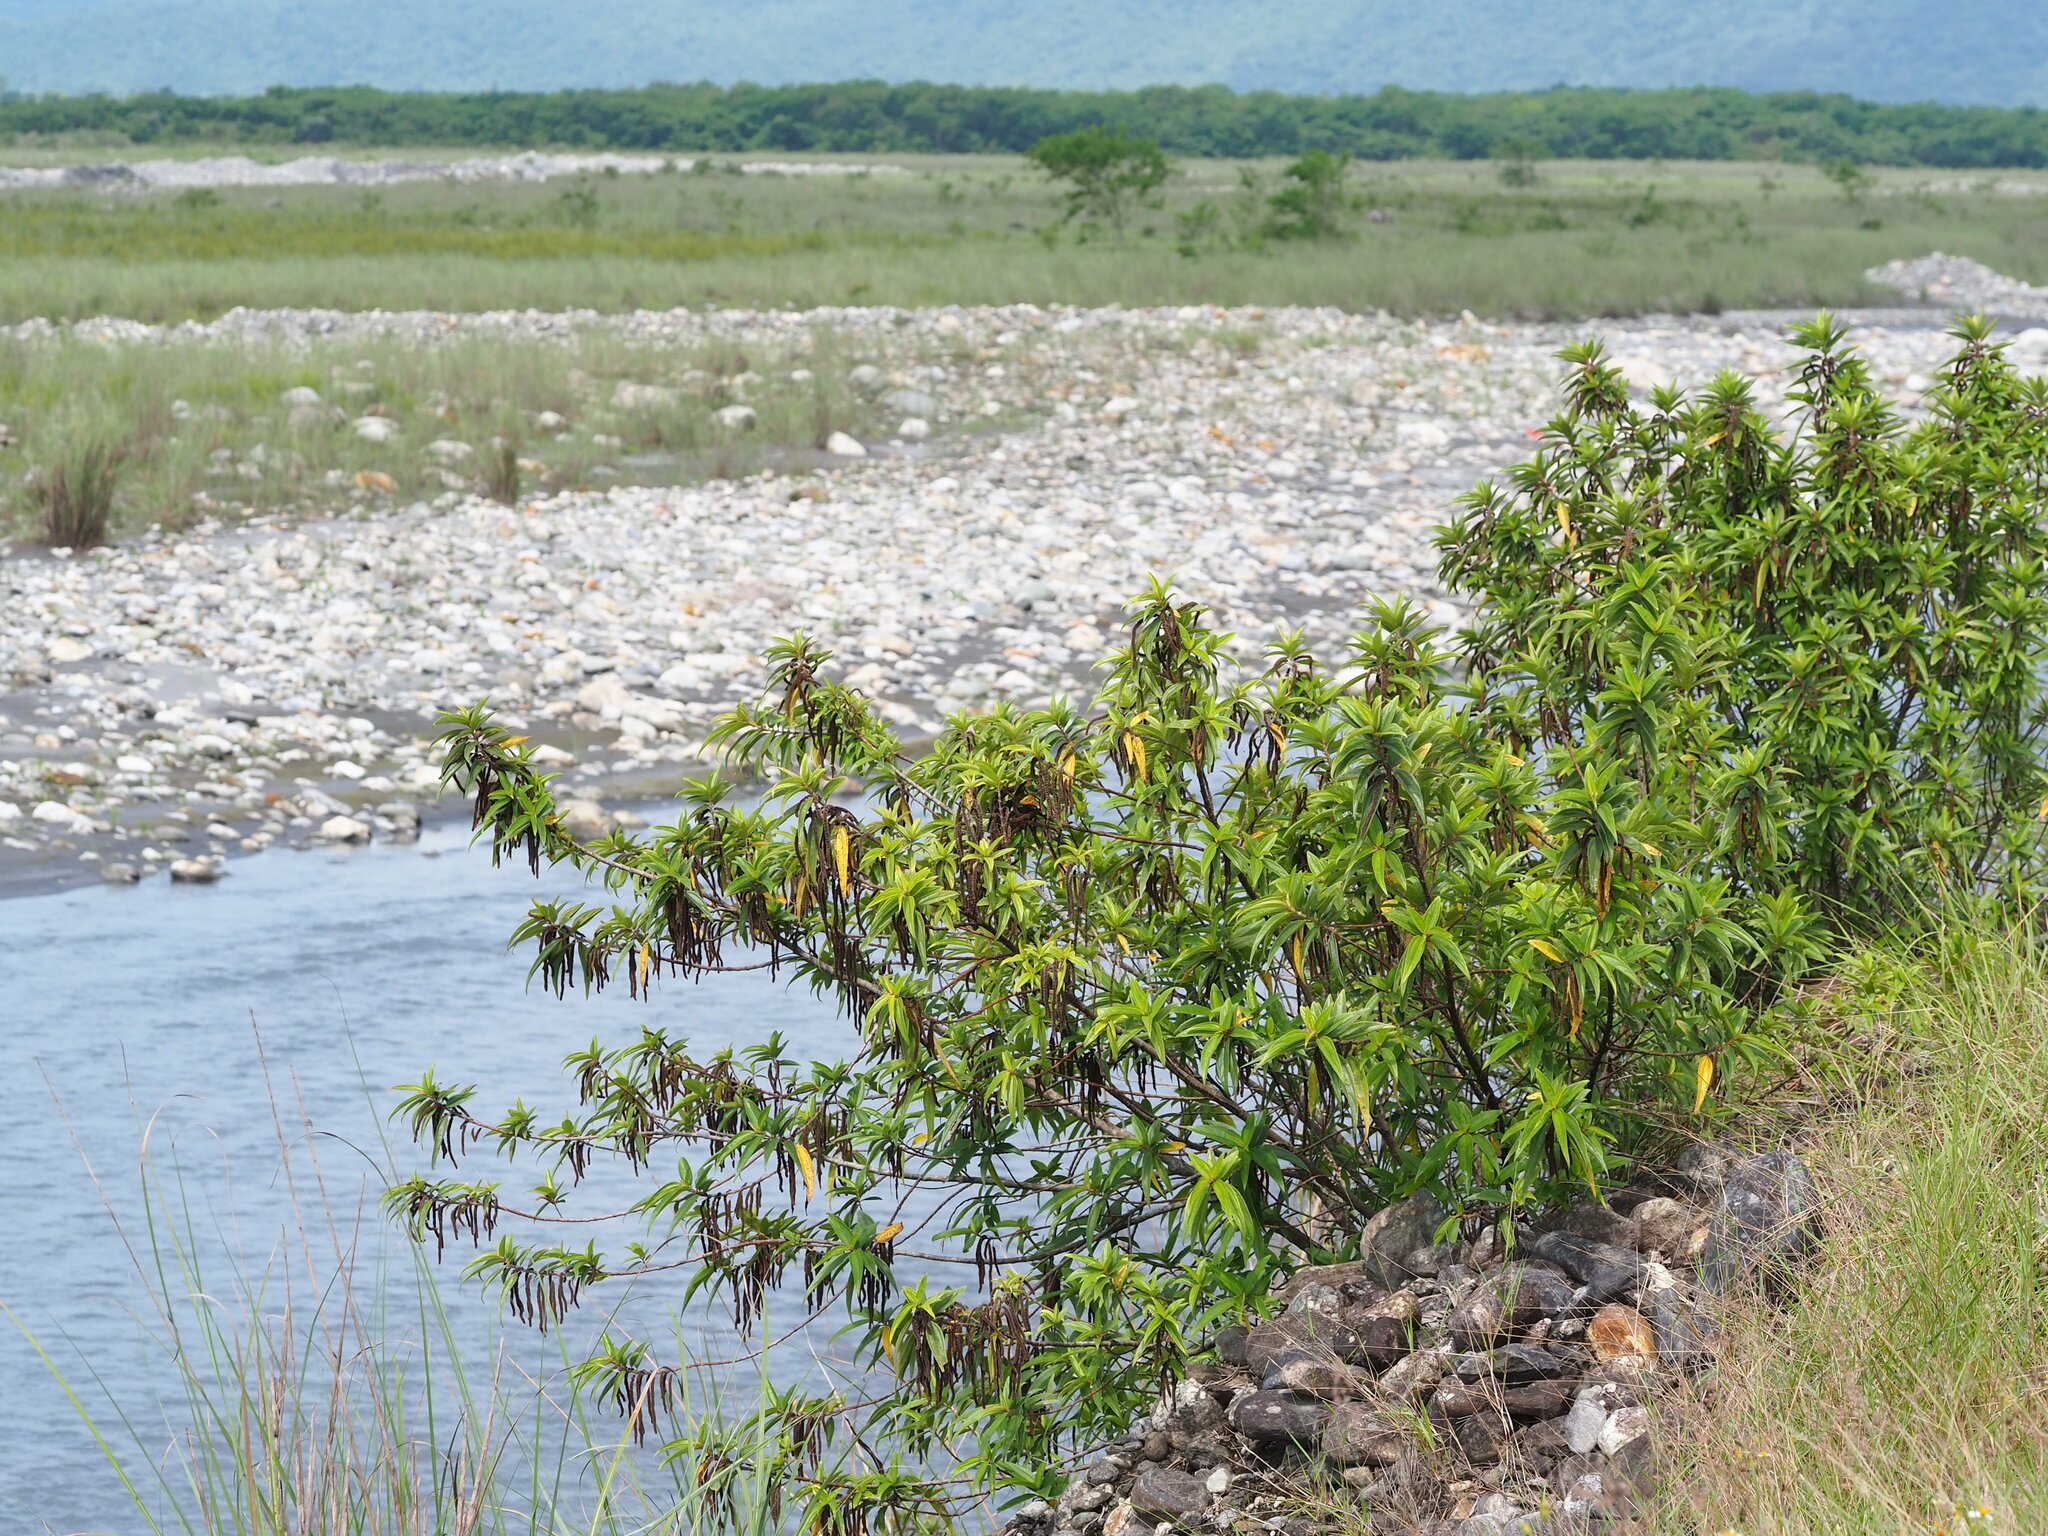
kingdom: Plantae
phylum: Tracheophyta
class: Magnoliopsida
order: Rosales
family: Urticaceae
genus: Boehmeria
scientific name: Boehmeria densiflora
